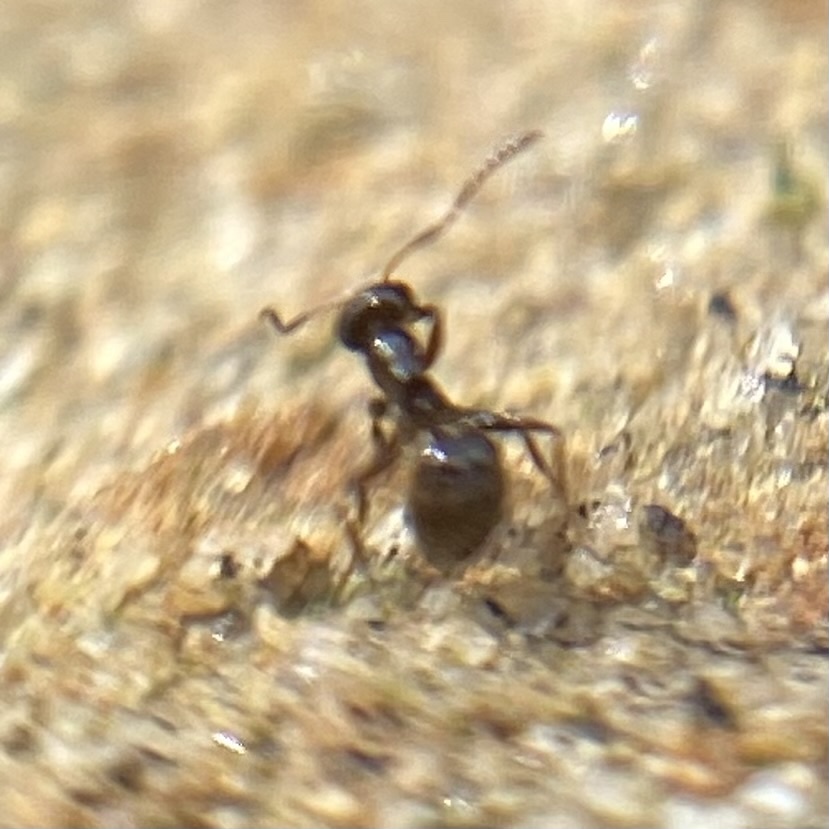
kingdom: Animalia
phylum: Arthropoda
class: Insecta
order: Hymenoptera
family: Formicidae
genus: Brachymyrmex
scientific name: Brachymyrmex patagonicus
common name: Dark rover ant
